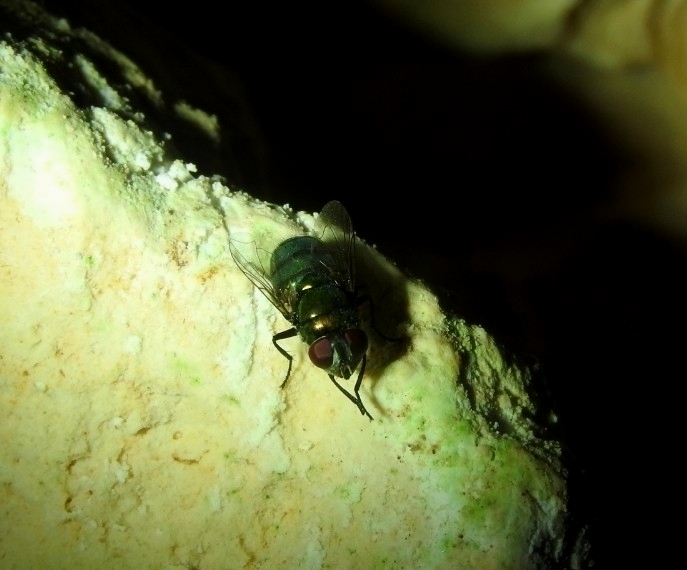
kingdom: Animalia
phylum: Arthropoda
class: Insecta
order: Diptera
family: Calliphoridae
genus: Chrysomya
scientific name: Chrysomya megacephala
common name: Blow fly
